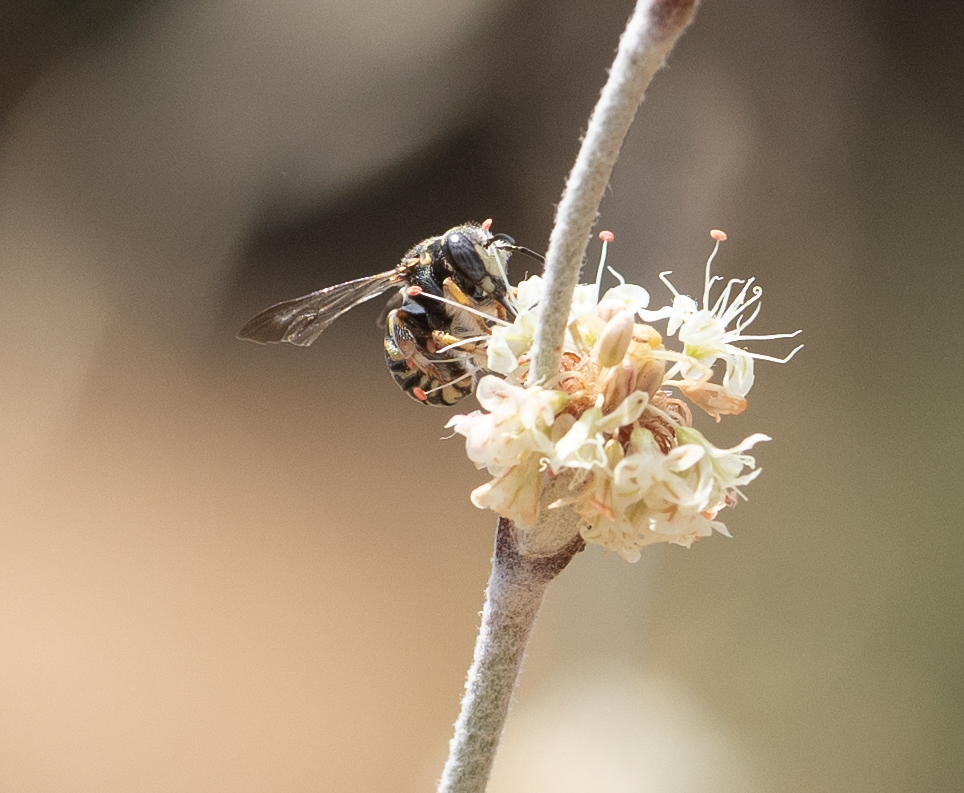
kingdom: Animalia
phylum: Arthropoda
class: Insecta
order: Hymenoptera
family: Megachilidae
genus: Anthidiellum
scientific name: Anthidiellum robertsoni
